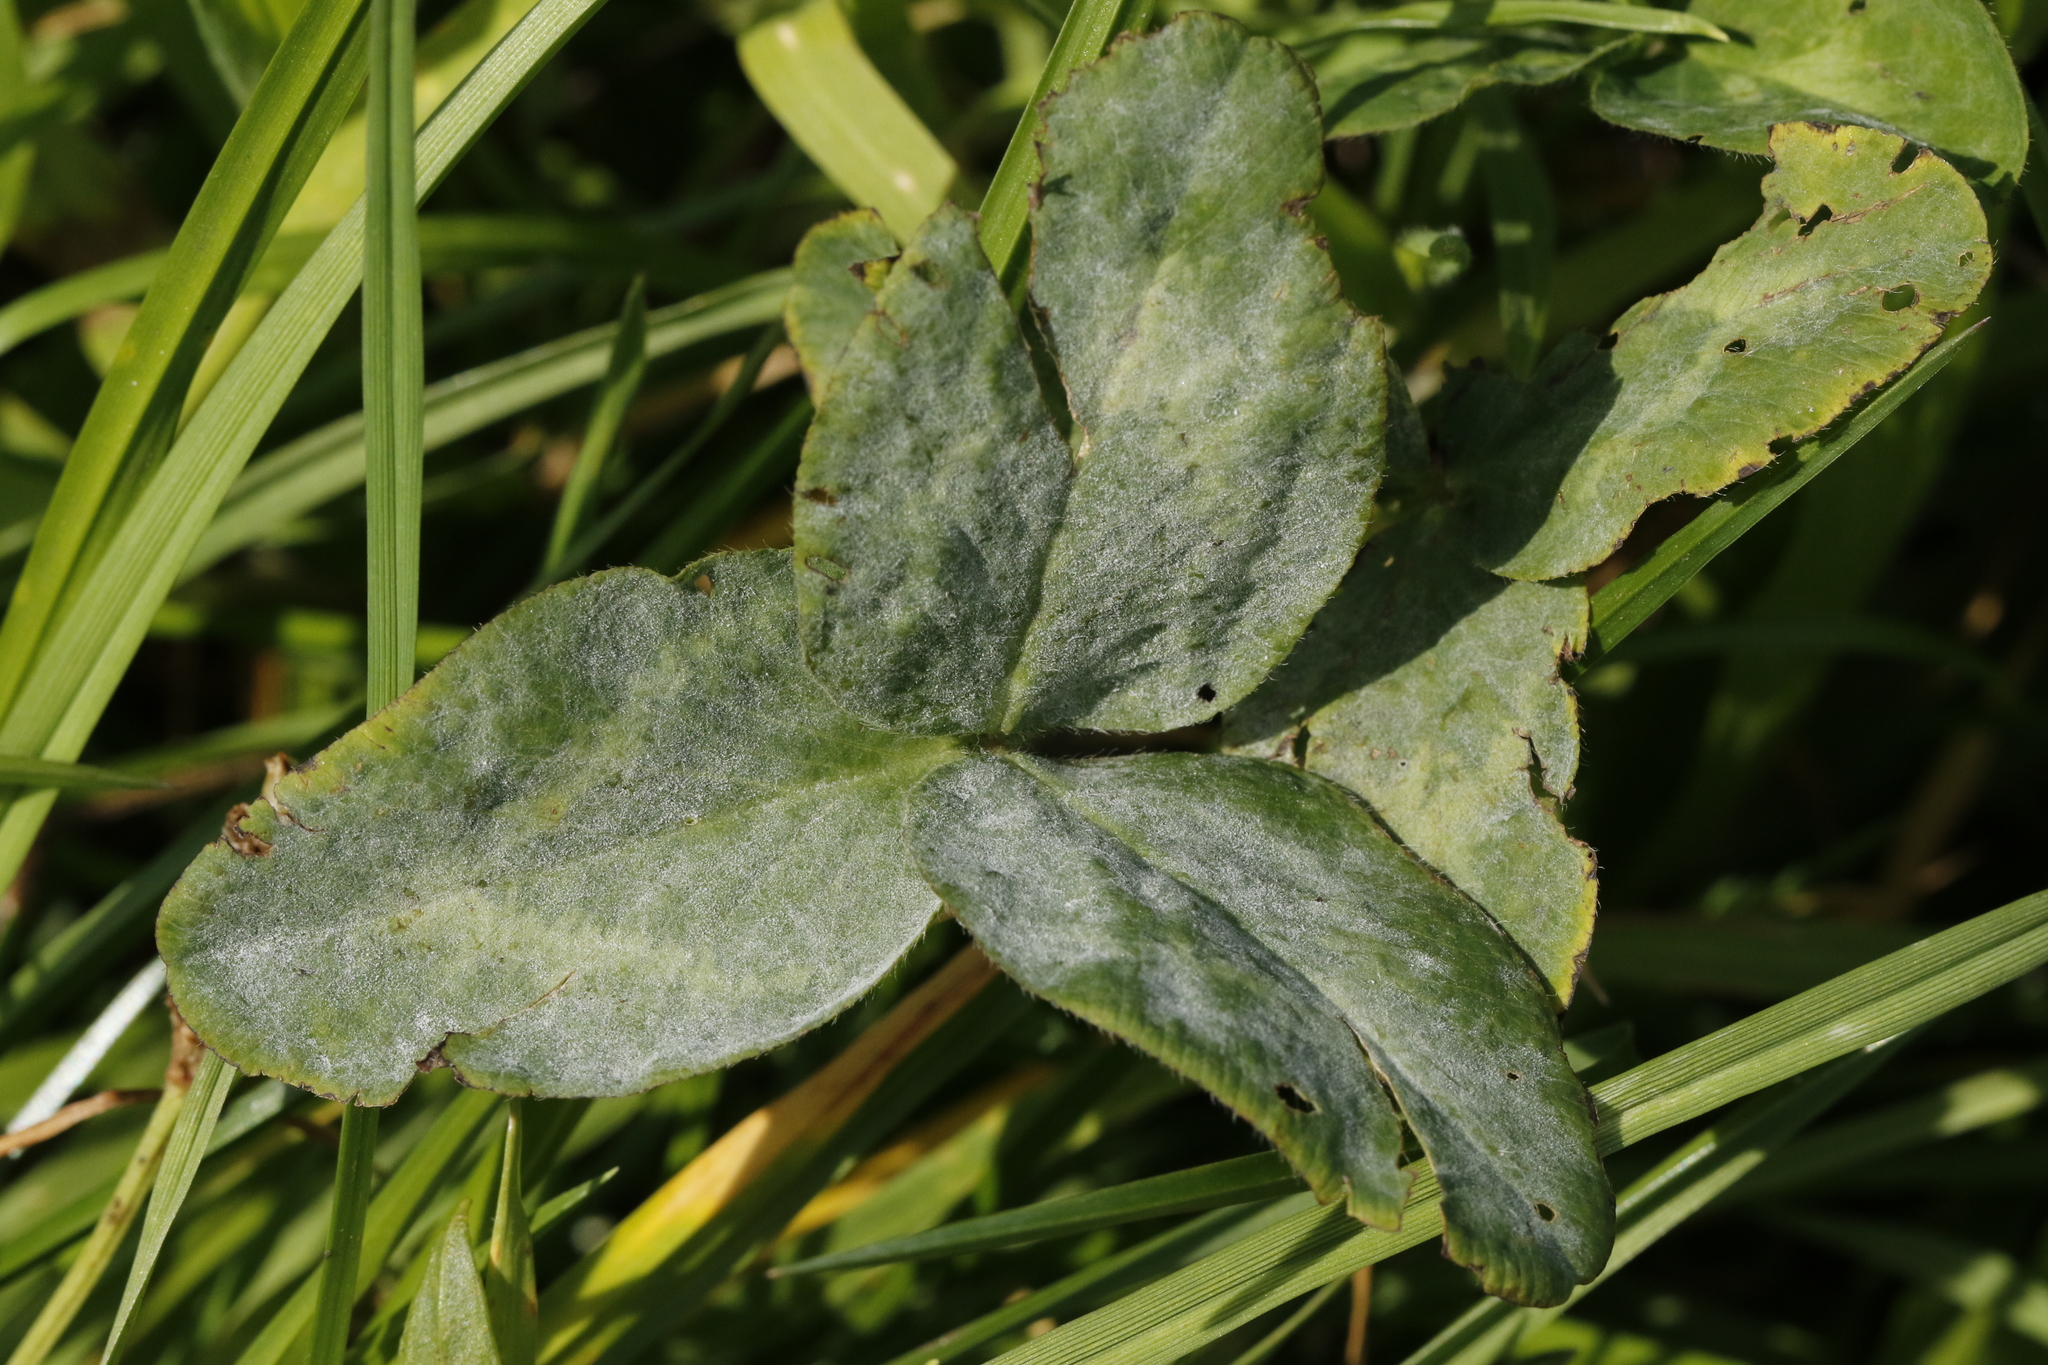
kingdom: Plantae
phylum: Tracheophyta
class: Magnoliopsida
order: Fabales
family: Fabaceae
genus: Trifolium
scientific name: Trifolium pratense
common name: Red clover
